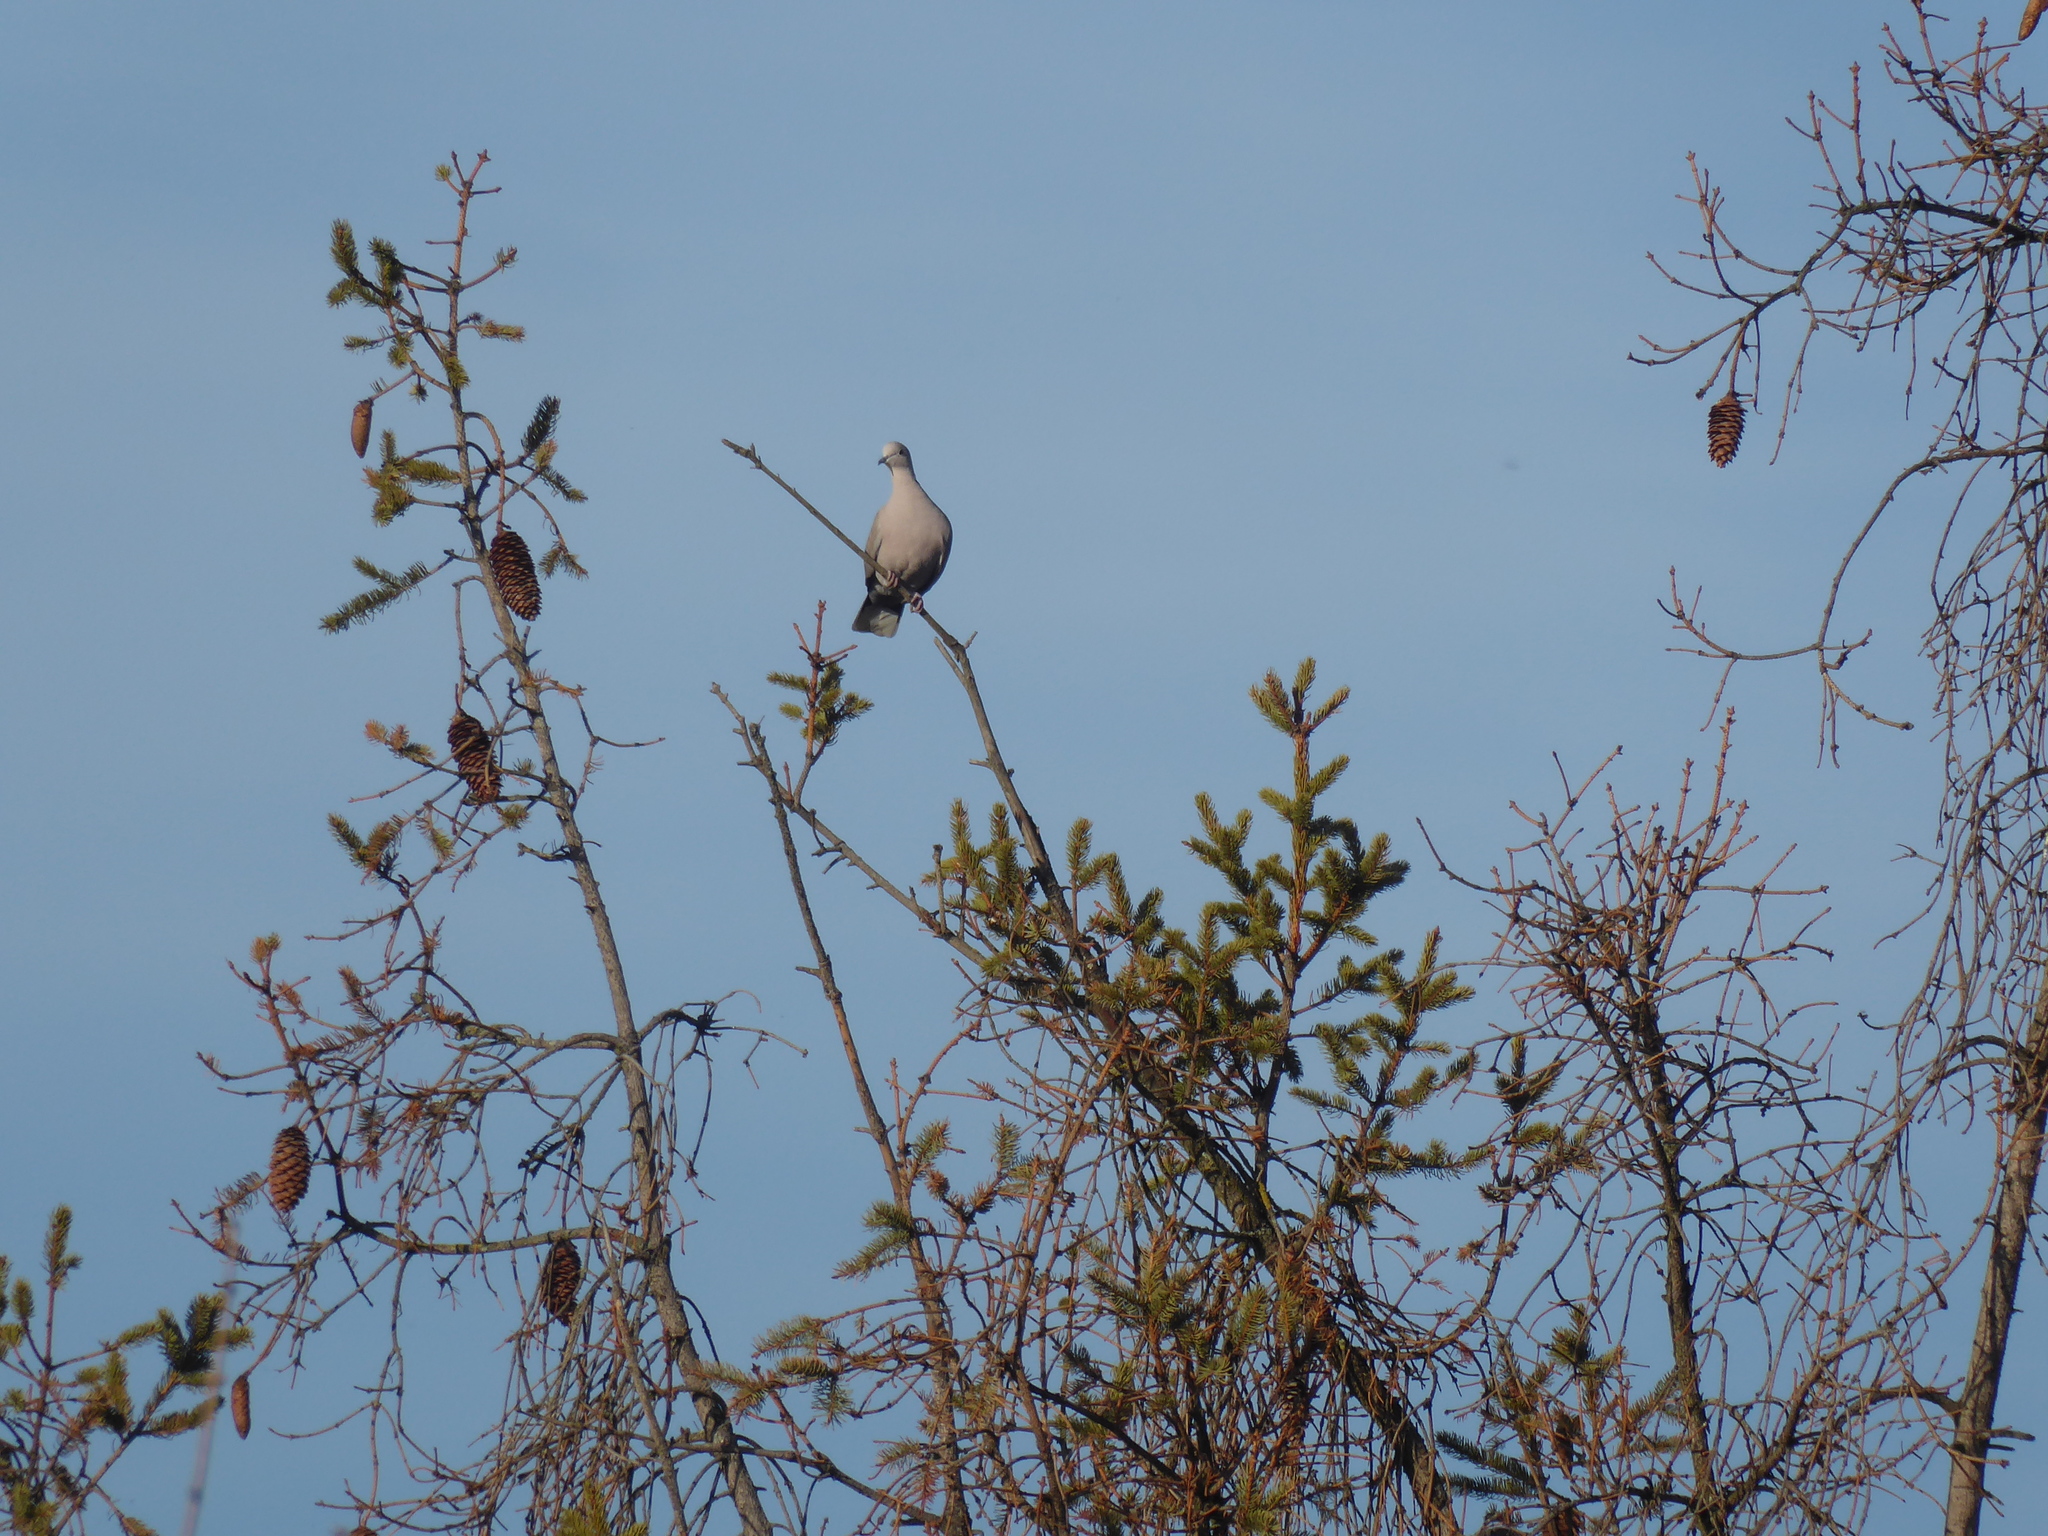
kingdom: Animalia
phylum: Chordata
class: Aves
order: Columbiformes
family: Columbidae
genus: Streptopelia
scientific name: Streptopelia decaocto
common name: Eurasian collared dove
